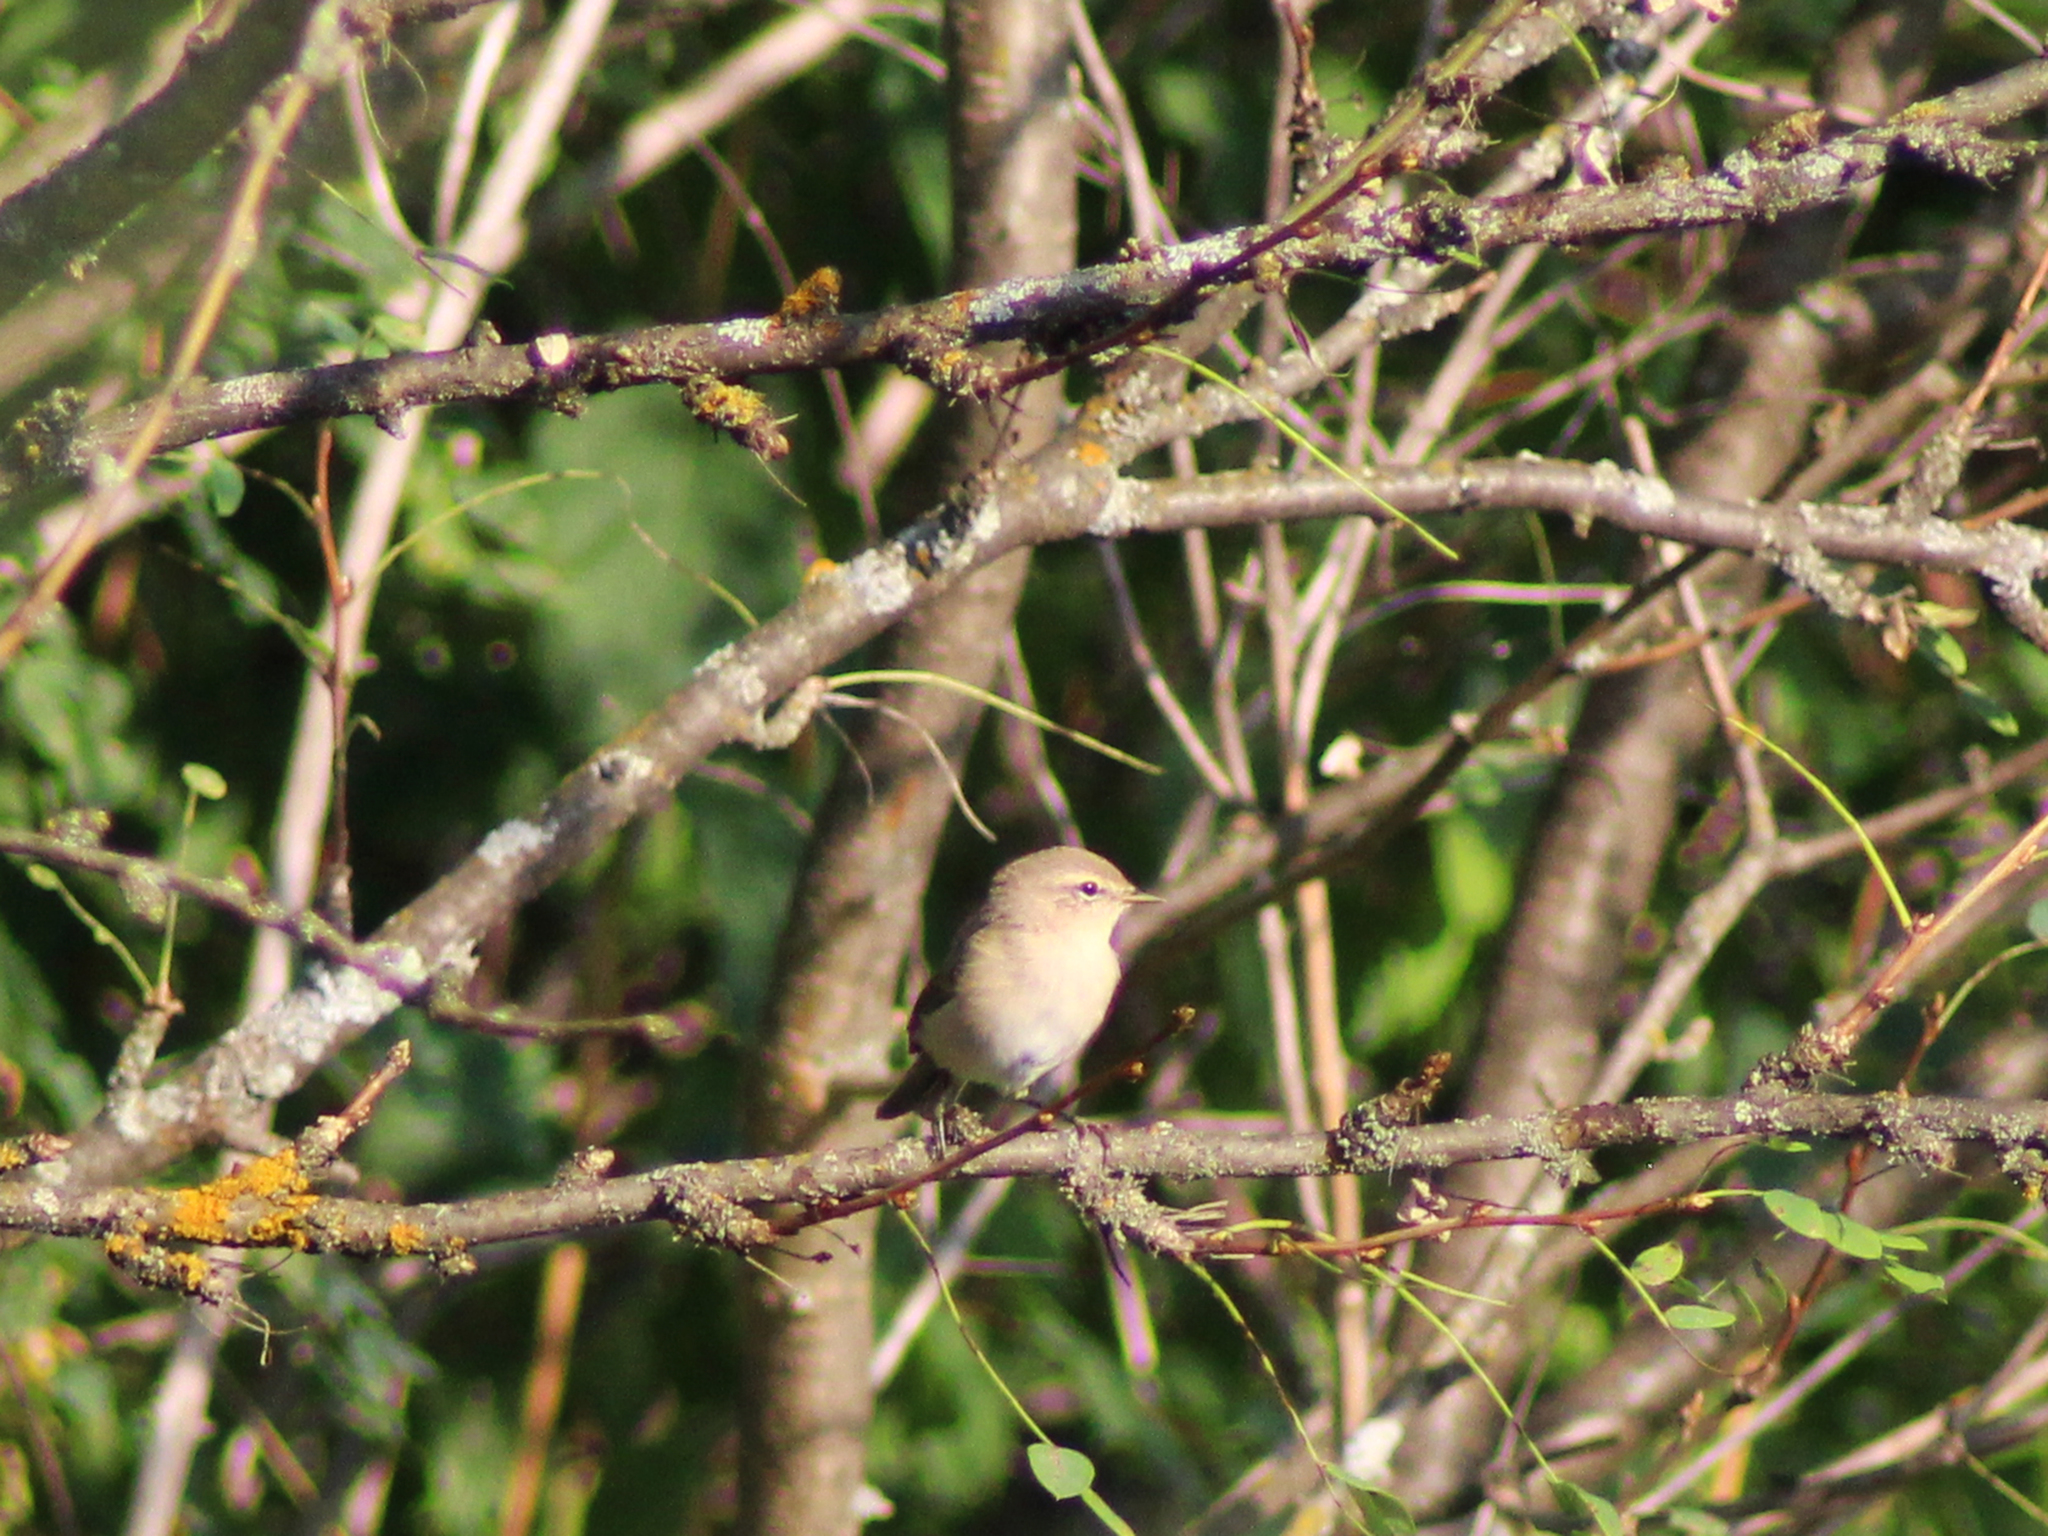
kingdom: Animalia
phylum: Chordata
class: Aves
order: Passeriformes
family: Phylloscopidae
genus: Phylloscopus
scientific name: Phylloscopus collybita
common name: Common chiffchaff
